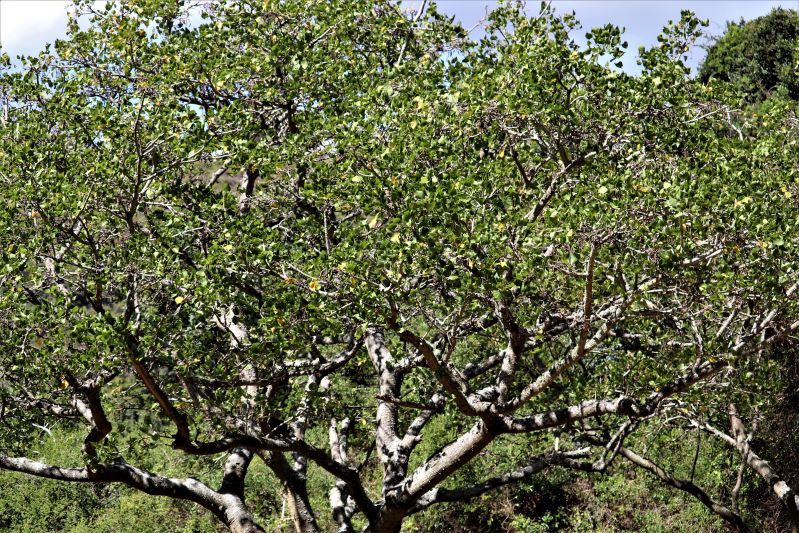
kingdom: Plantae
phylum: Tracheophyta
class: Magnoliopsida
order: Fabales
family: Fabaceae
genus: Erythrina
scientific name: Erythrina caffra
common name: Coast coral tree
